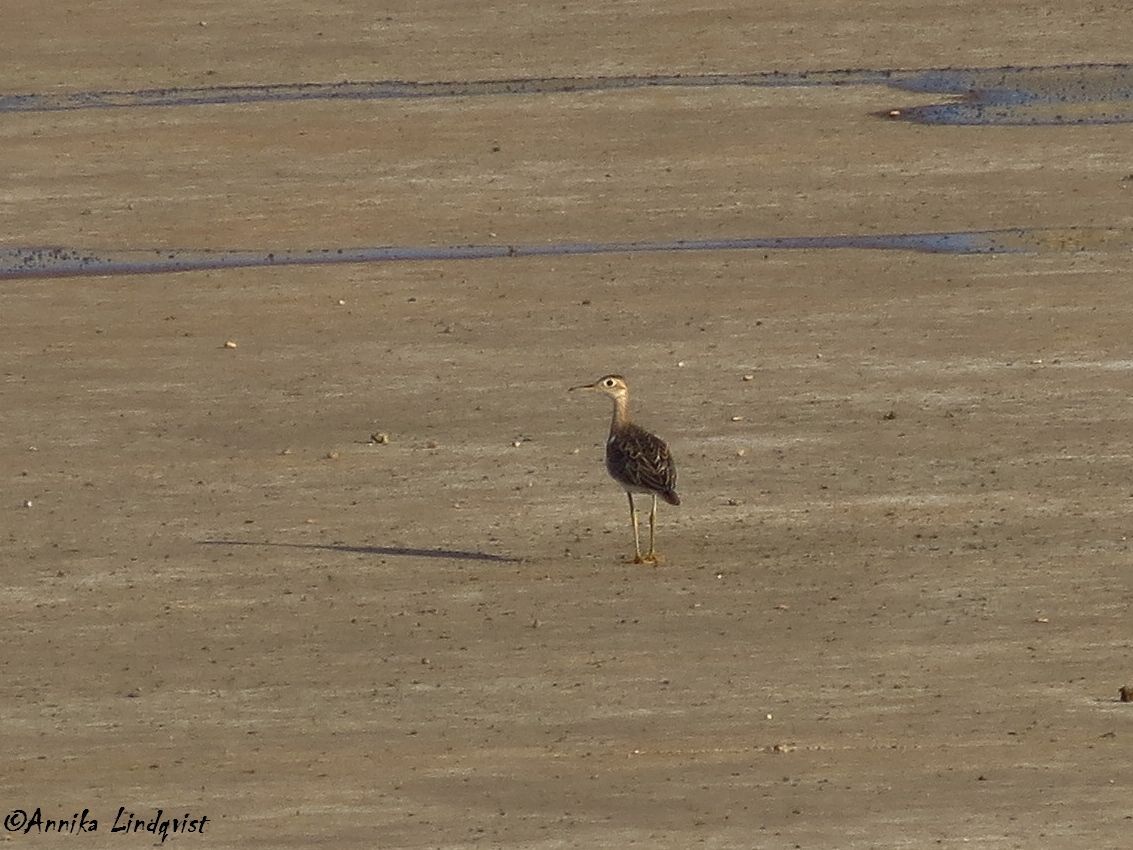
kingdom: Animalia
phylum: Chordata
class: Aves
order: Charadriiformes
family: Scolopacidae
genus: Bartramia
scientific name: Bartramia longicauda
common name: Upland sandpiper
